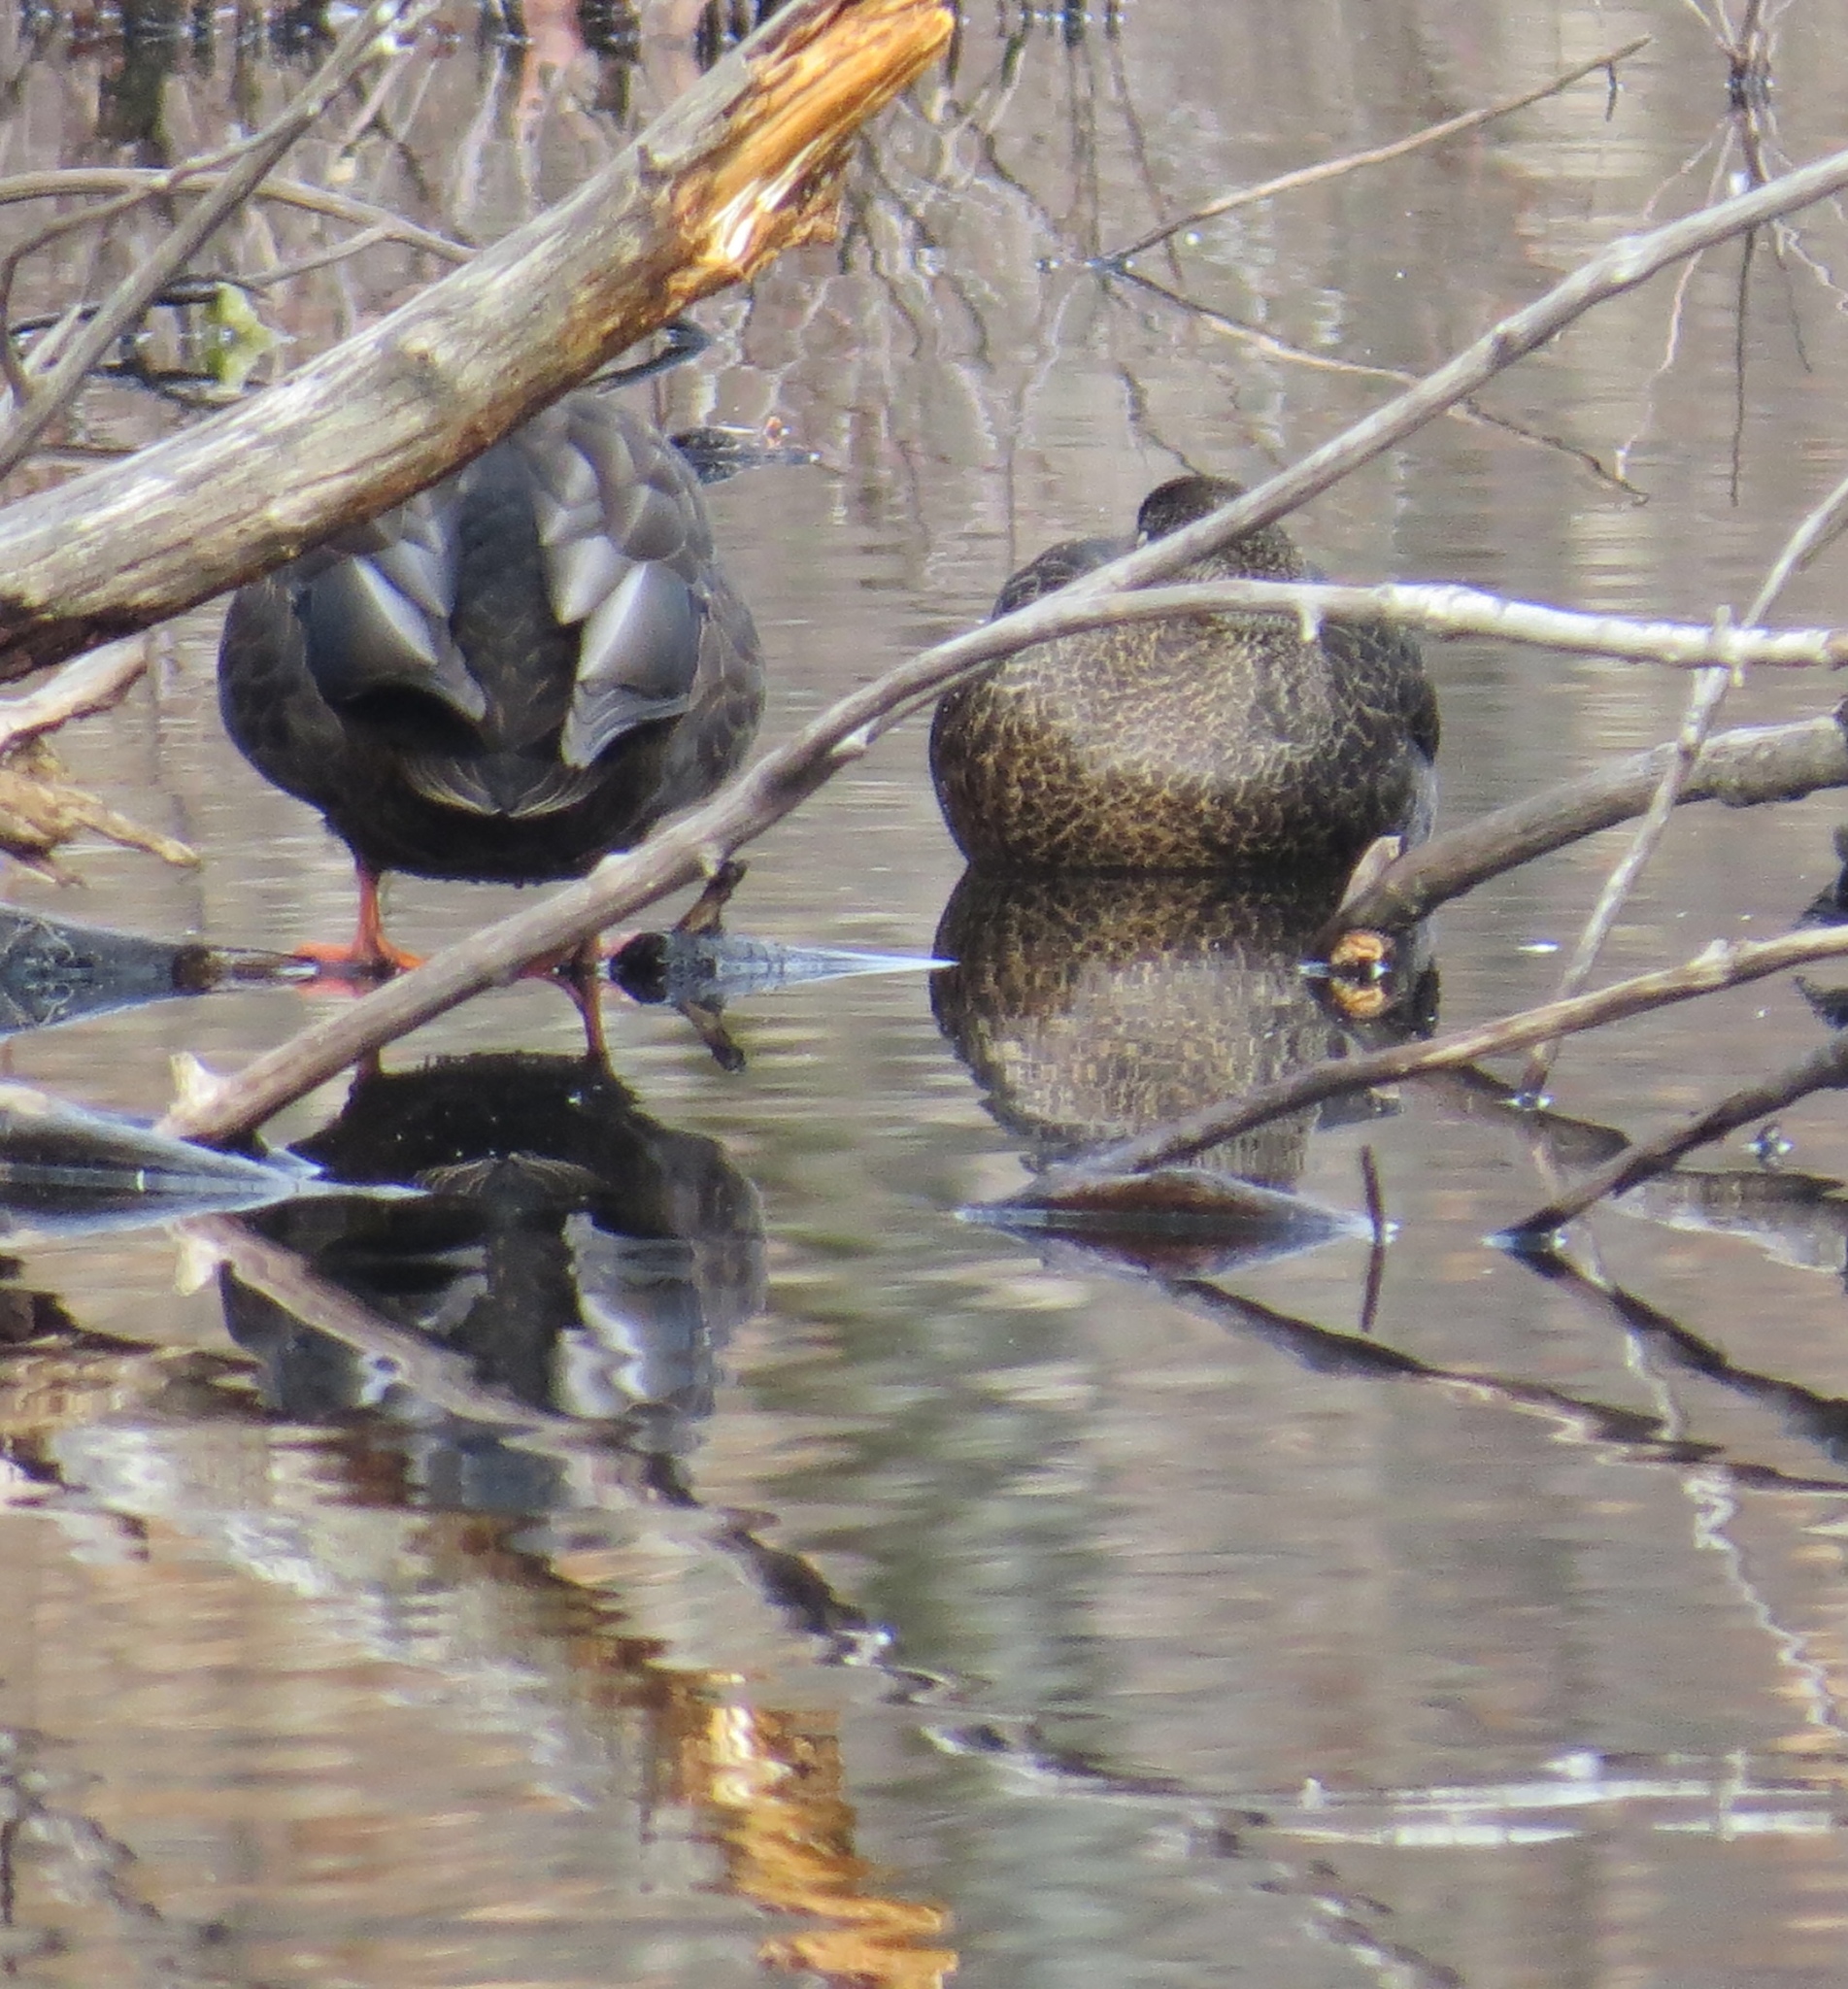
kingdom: Animalia
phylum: Chordata
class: Aves
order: Anseriformes
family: Anatidae
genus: Anas
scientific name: Anas rubripes
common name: American black duck
